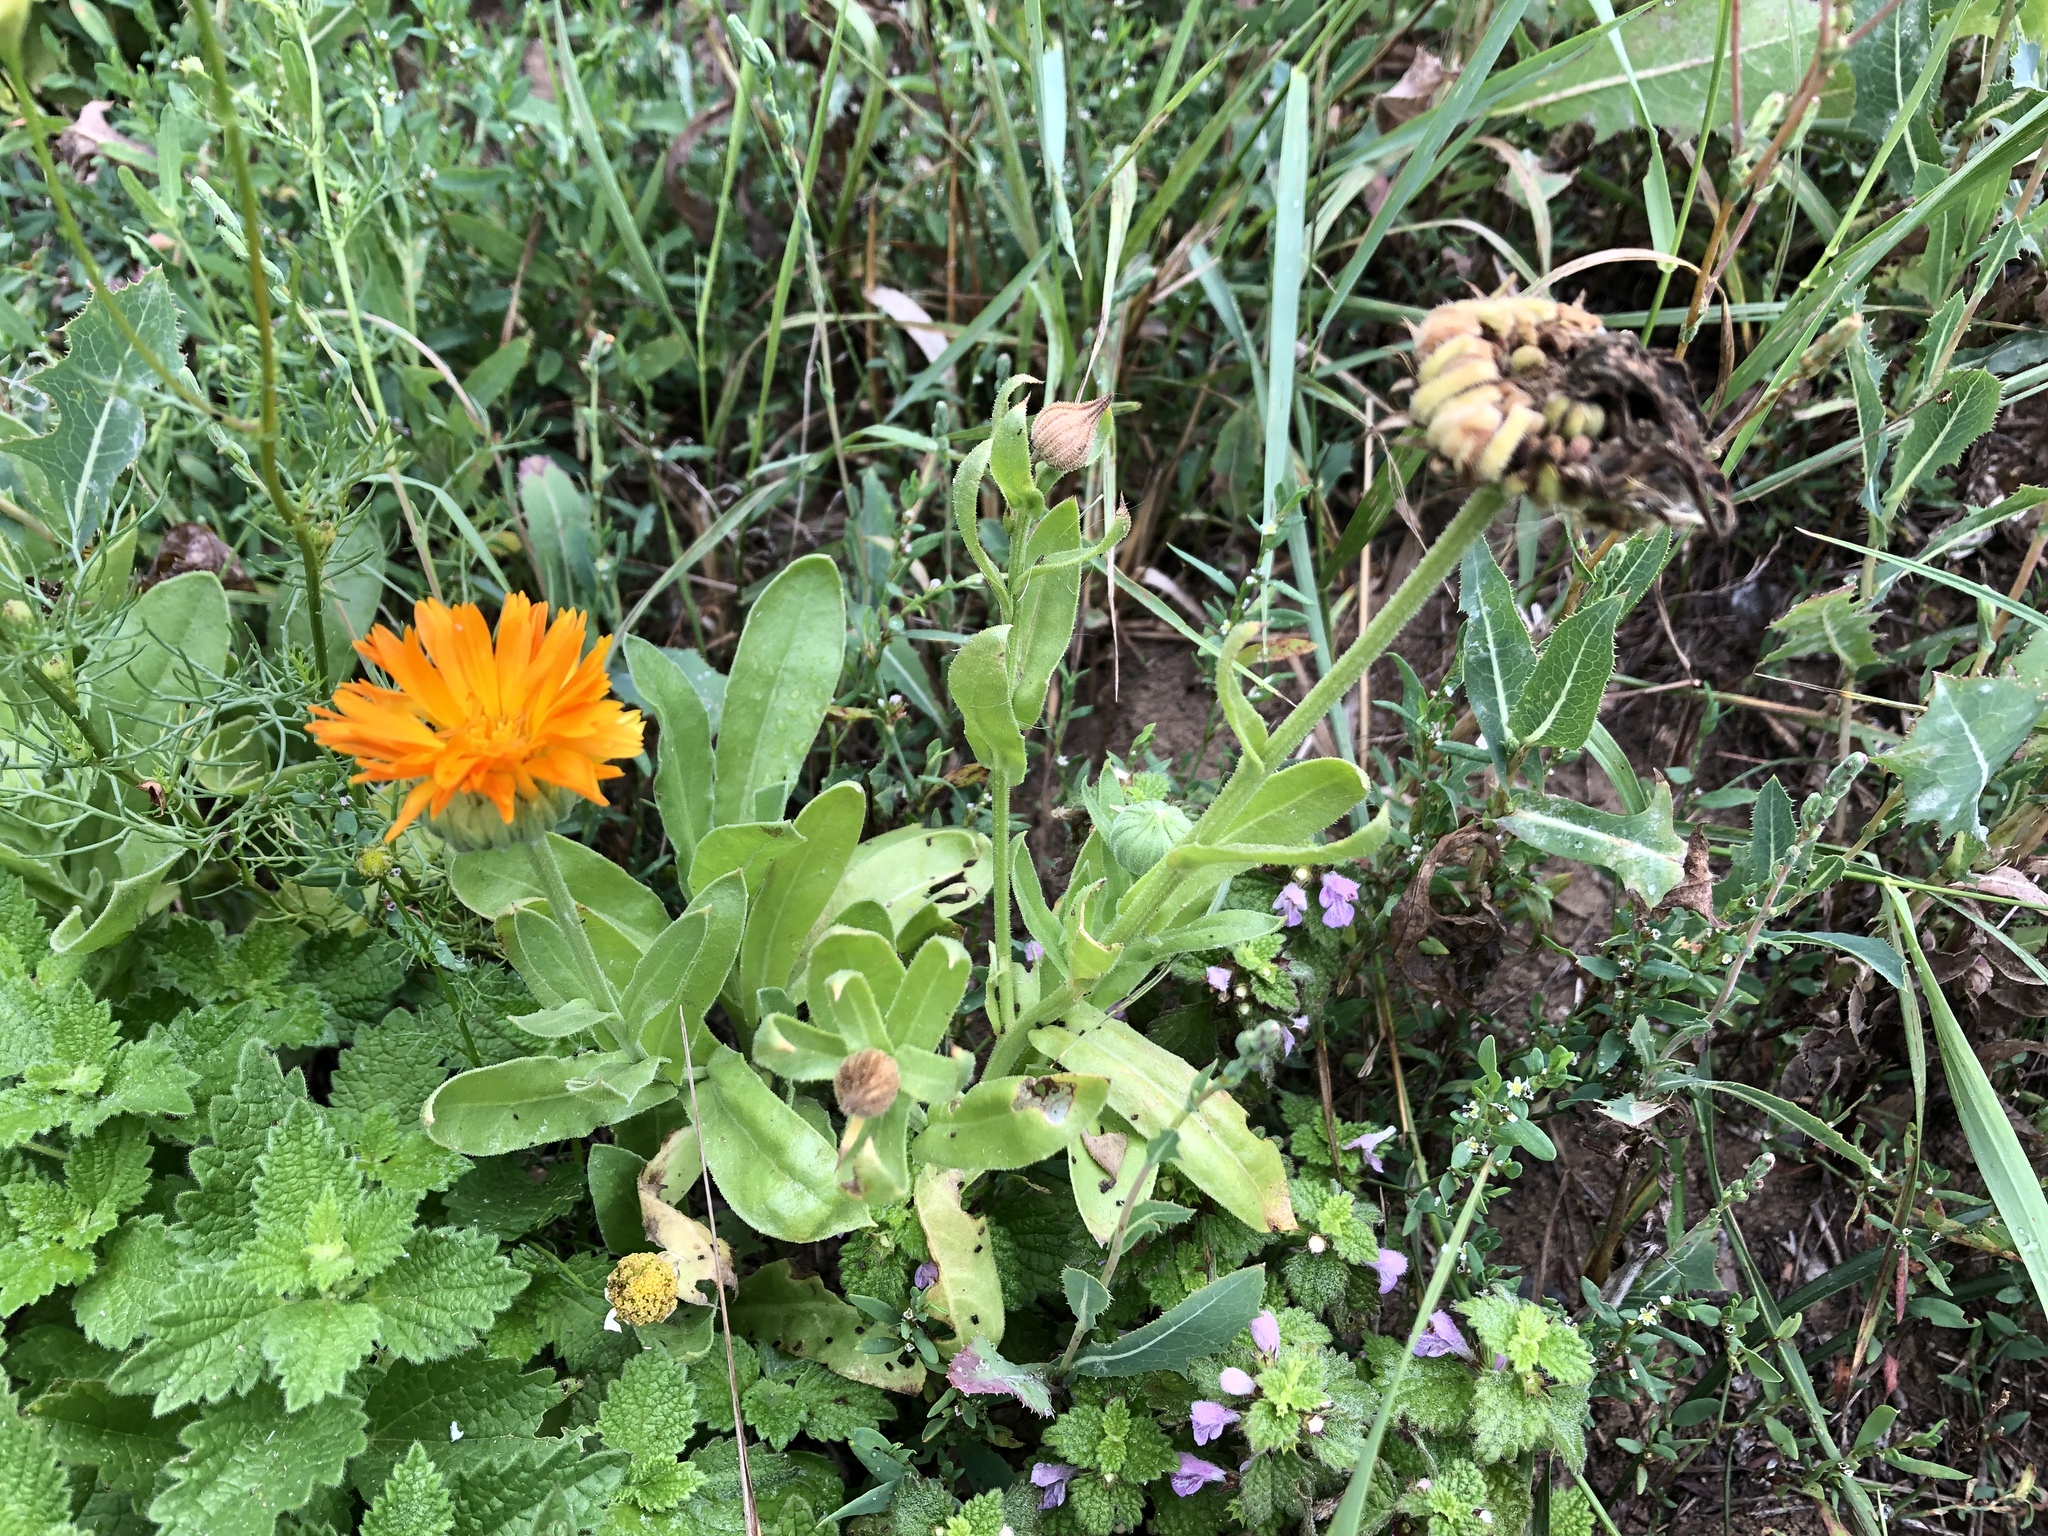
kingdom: Plantae
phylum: Tracheophyta
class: Magnoliopsida
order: Asterales
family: Asteraceae
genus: Calendula
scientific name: Calendula officinalis
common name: Pot marigold
